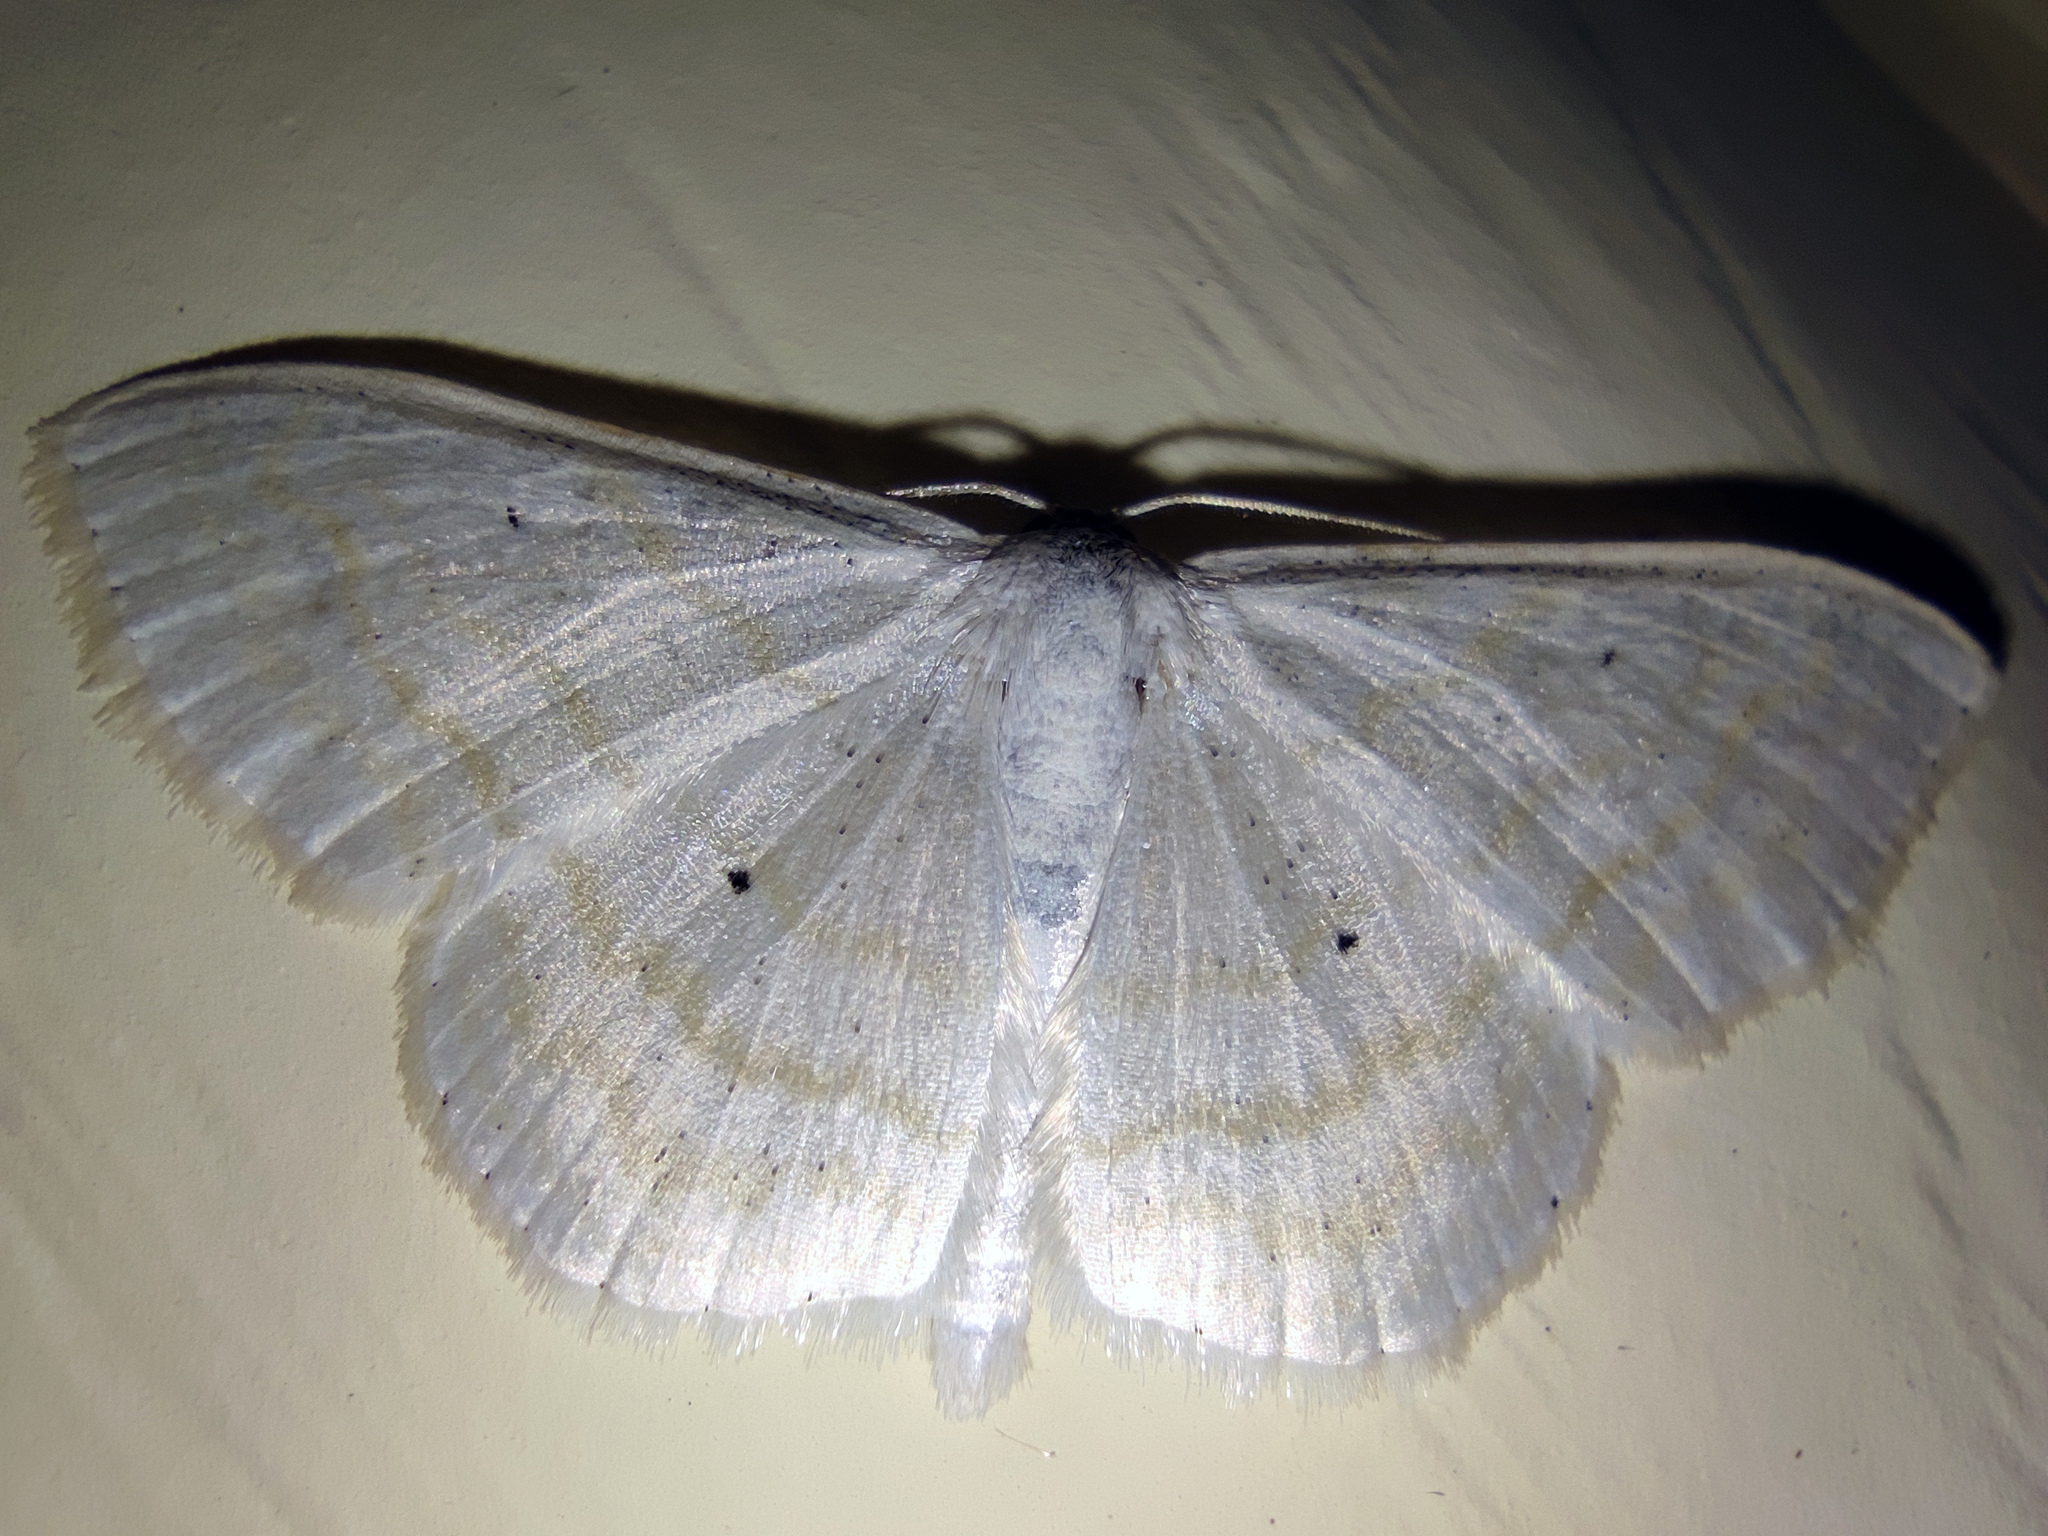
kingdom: Animalia
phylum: Arthropoda
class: Insecta
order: Lepidoptera
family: Geometridae
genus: Scopula
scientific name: Scopula subpunctaria
